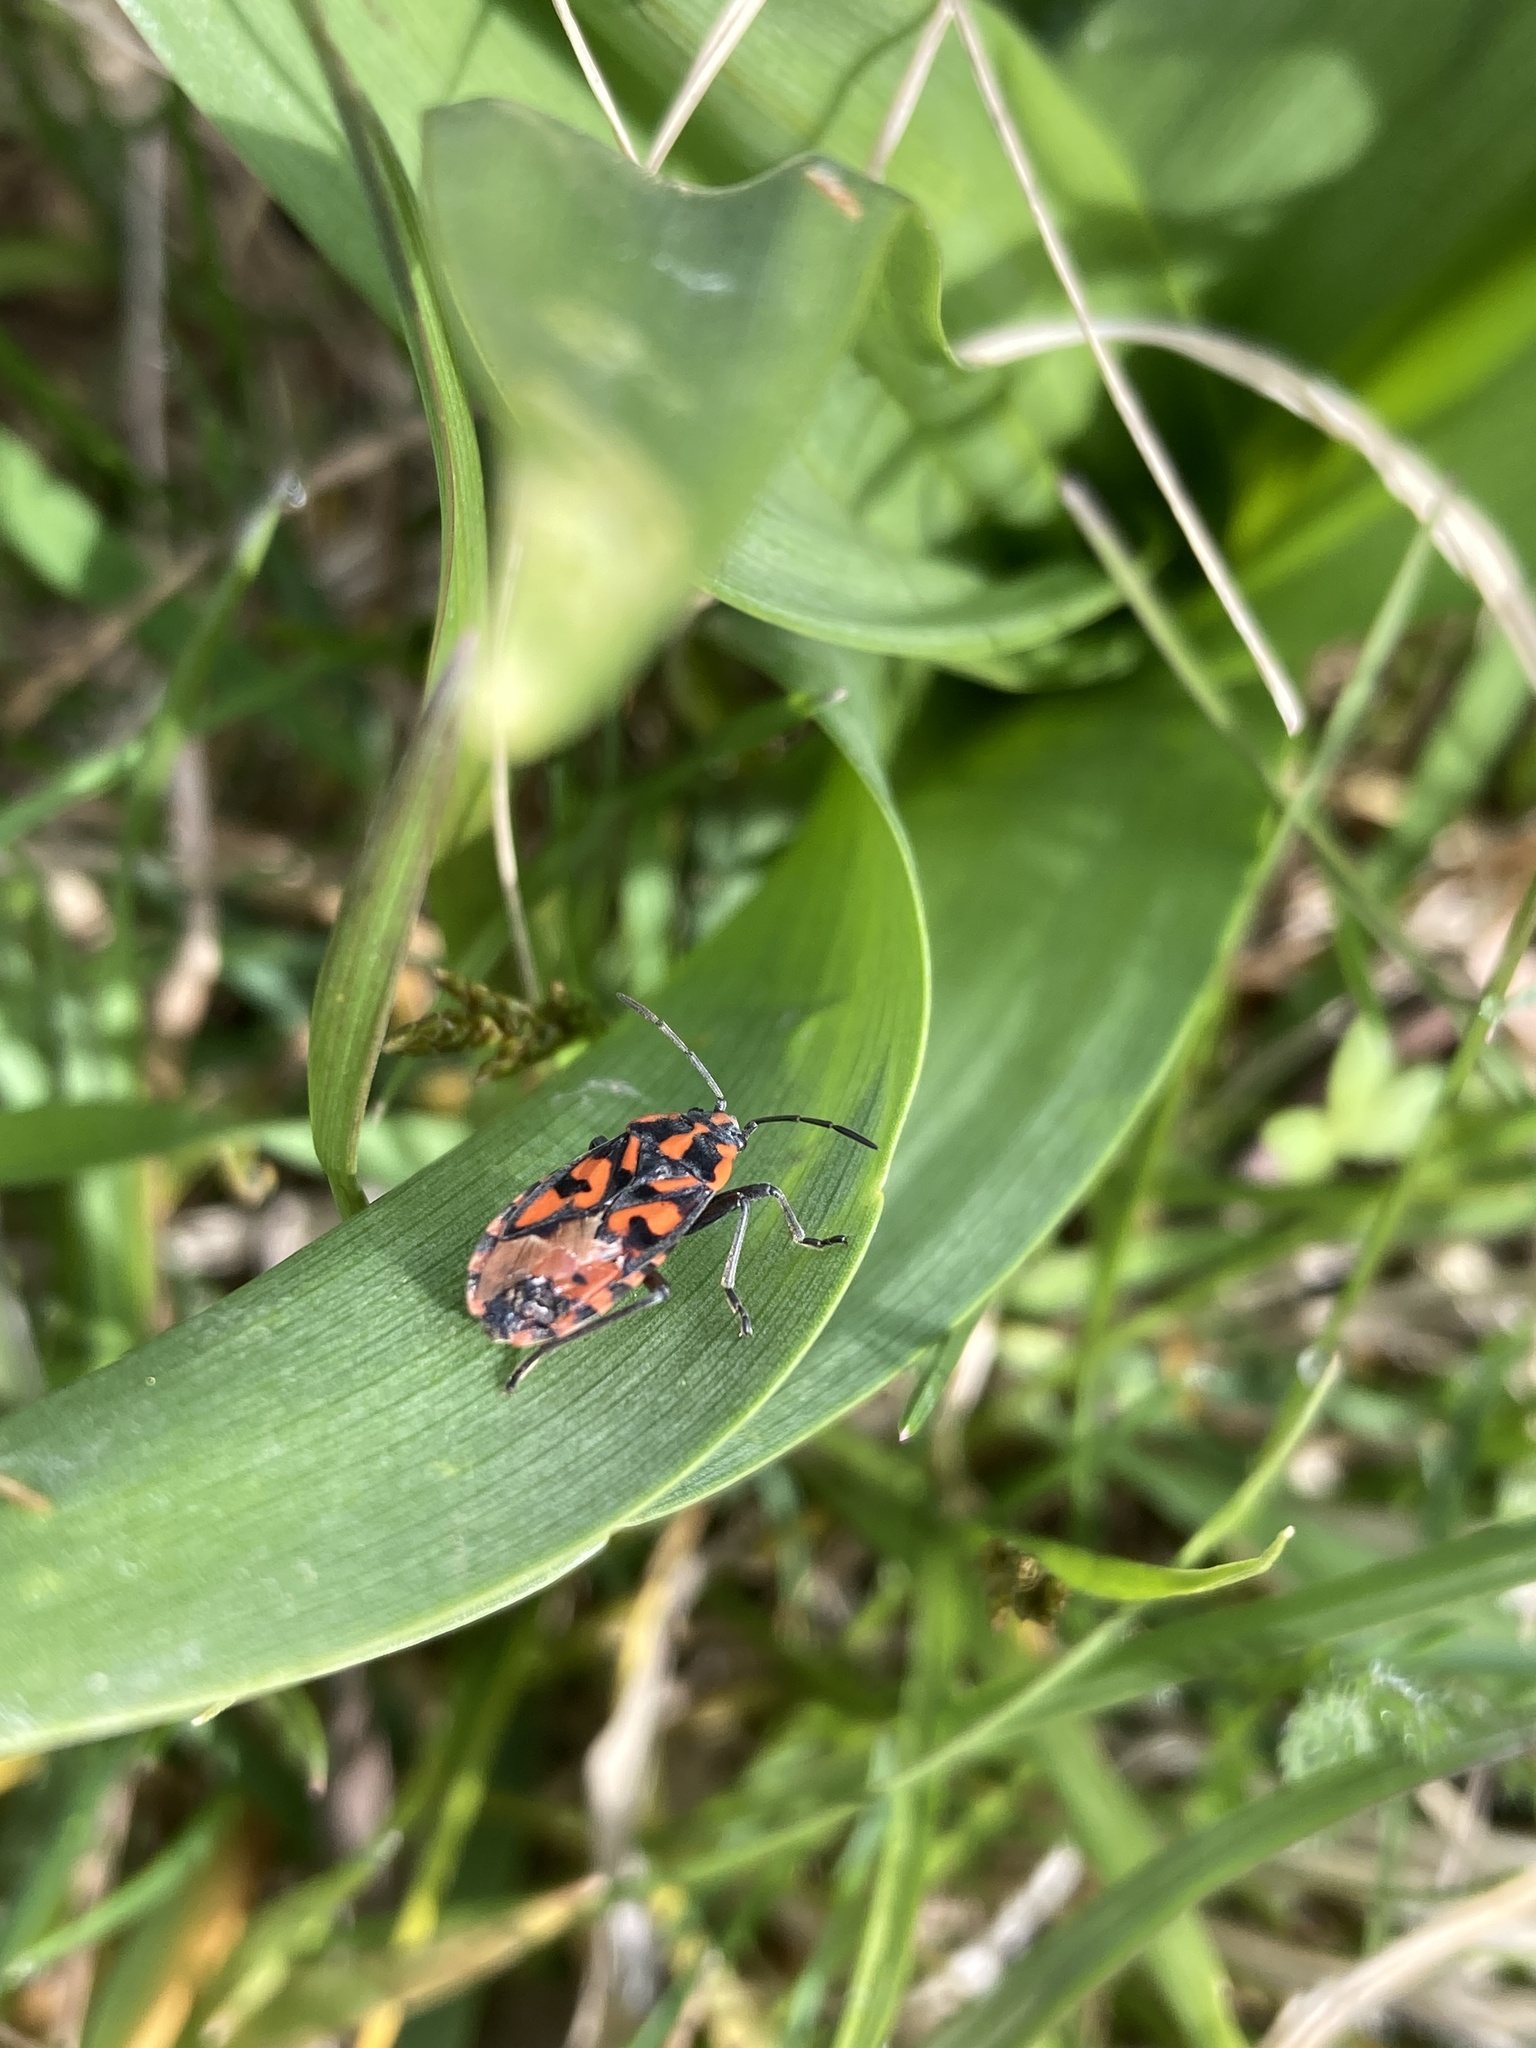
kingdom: Animalia
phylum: Arthropoda
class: Insecta
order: Hemiptera
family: Lygaeidae
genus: Spilostethus
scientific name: Spilostethus saxatilis
